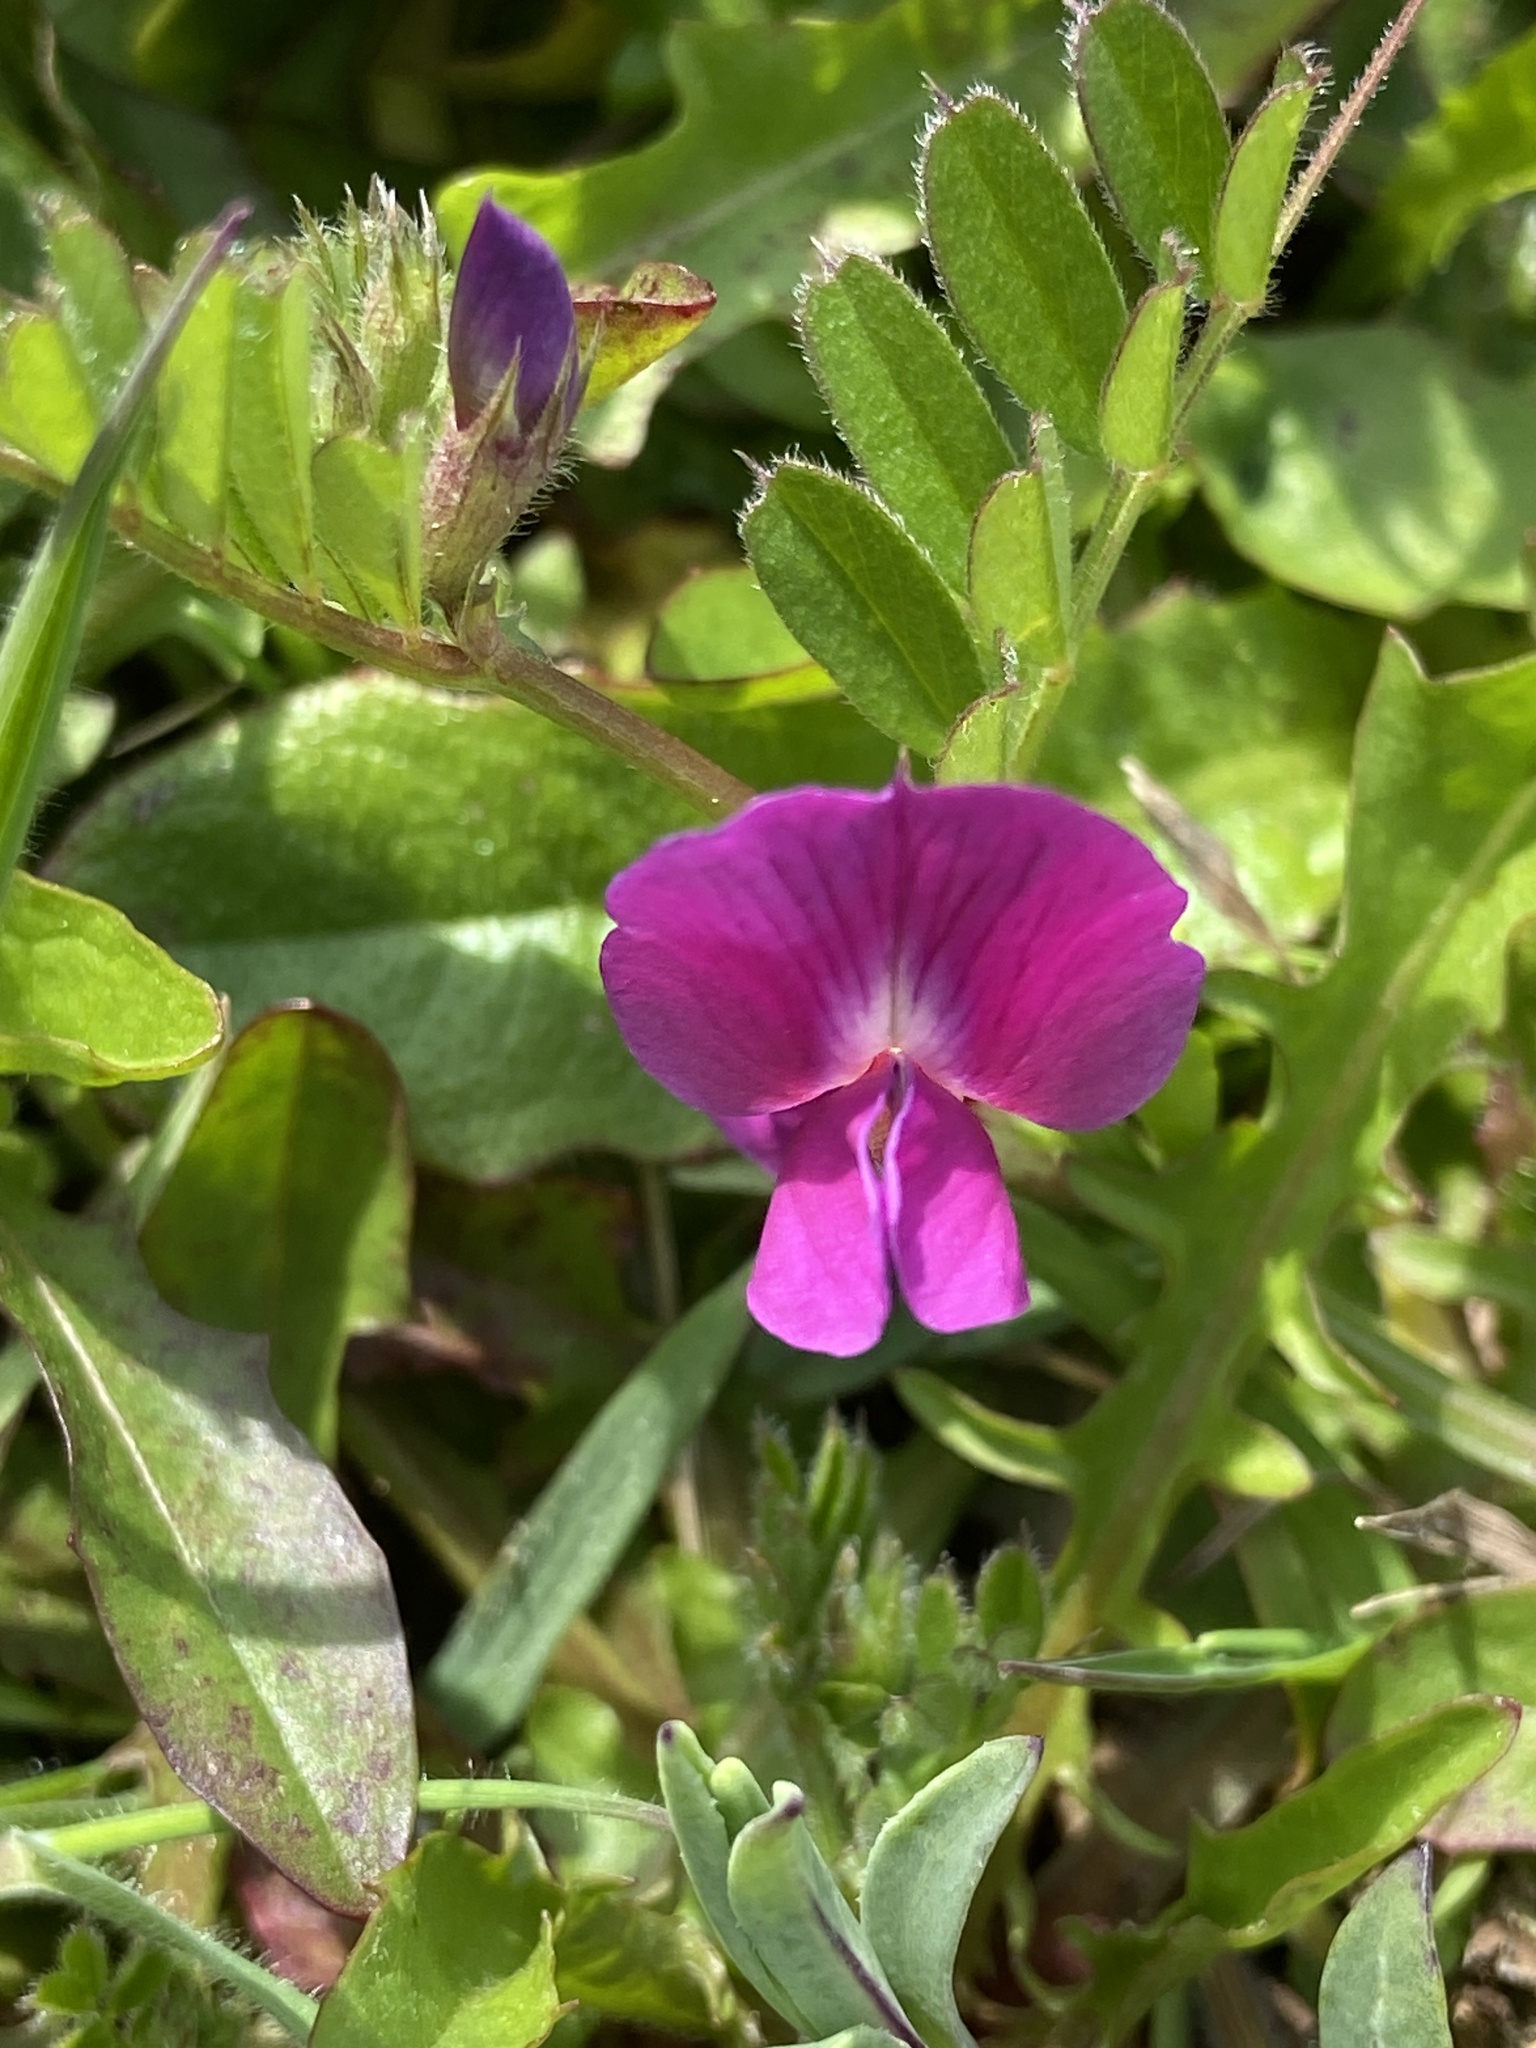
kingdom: Plantae
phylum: Tracheophyta
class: Magnoliopsida
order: Fabales
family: Fabaceae
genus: Vicia
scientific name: Vicia sativa
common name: Garden vetch
